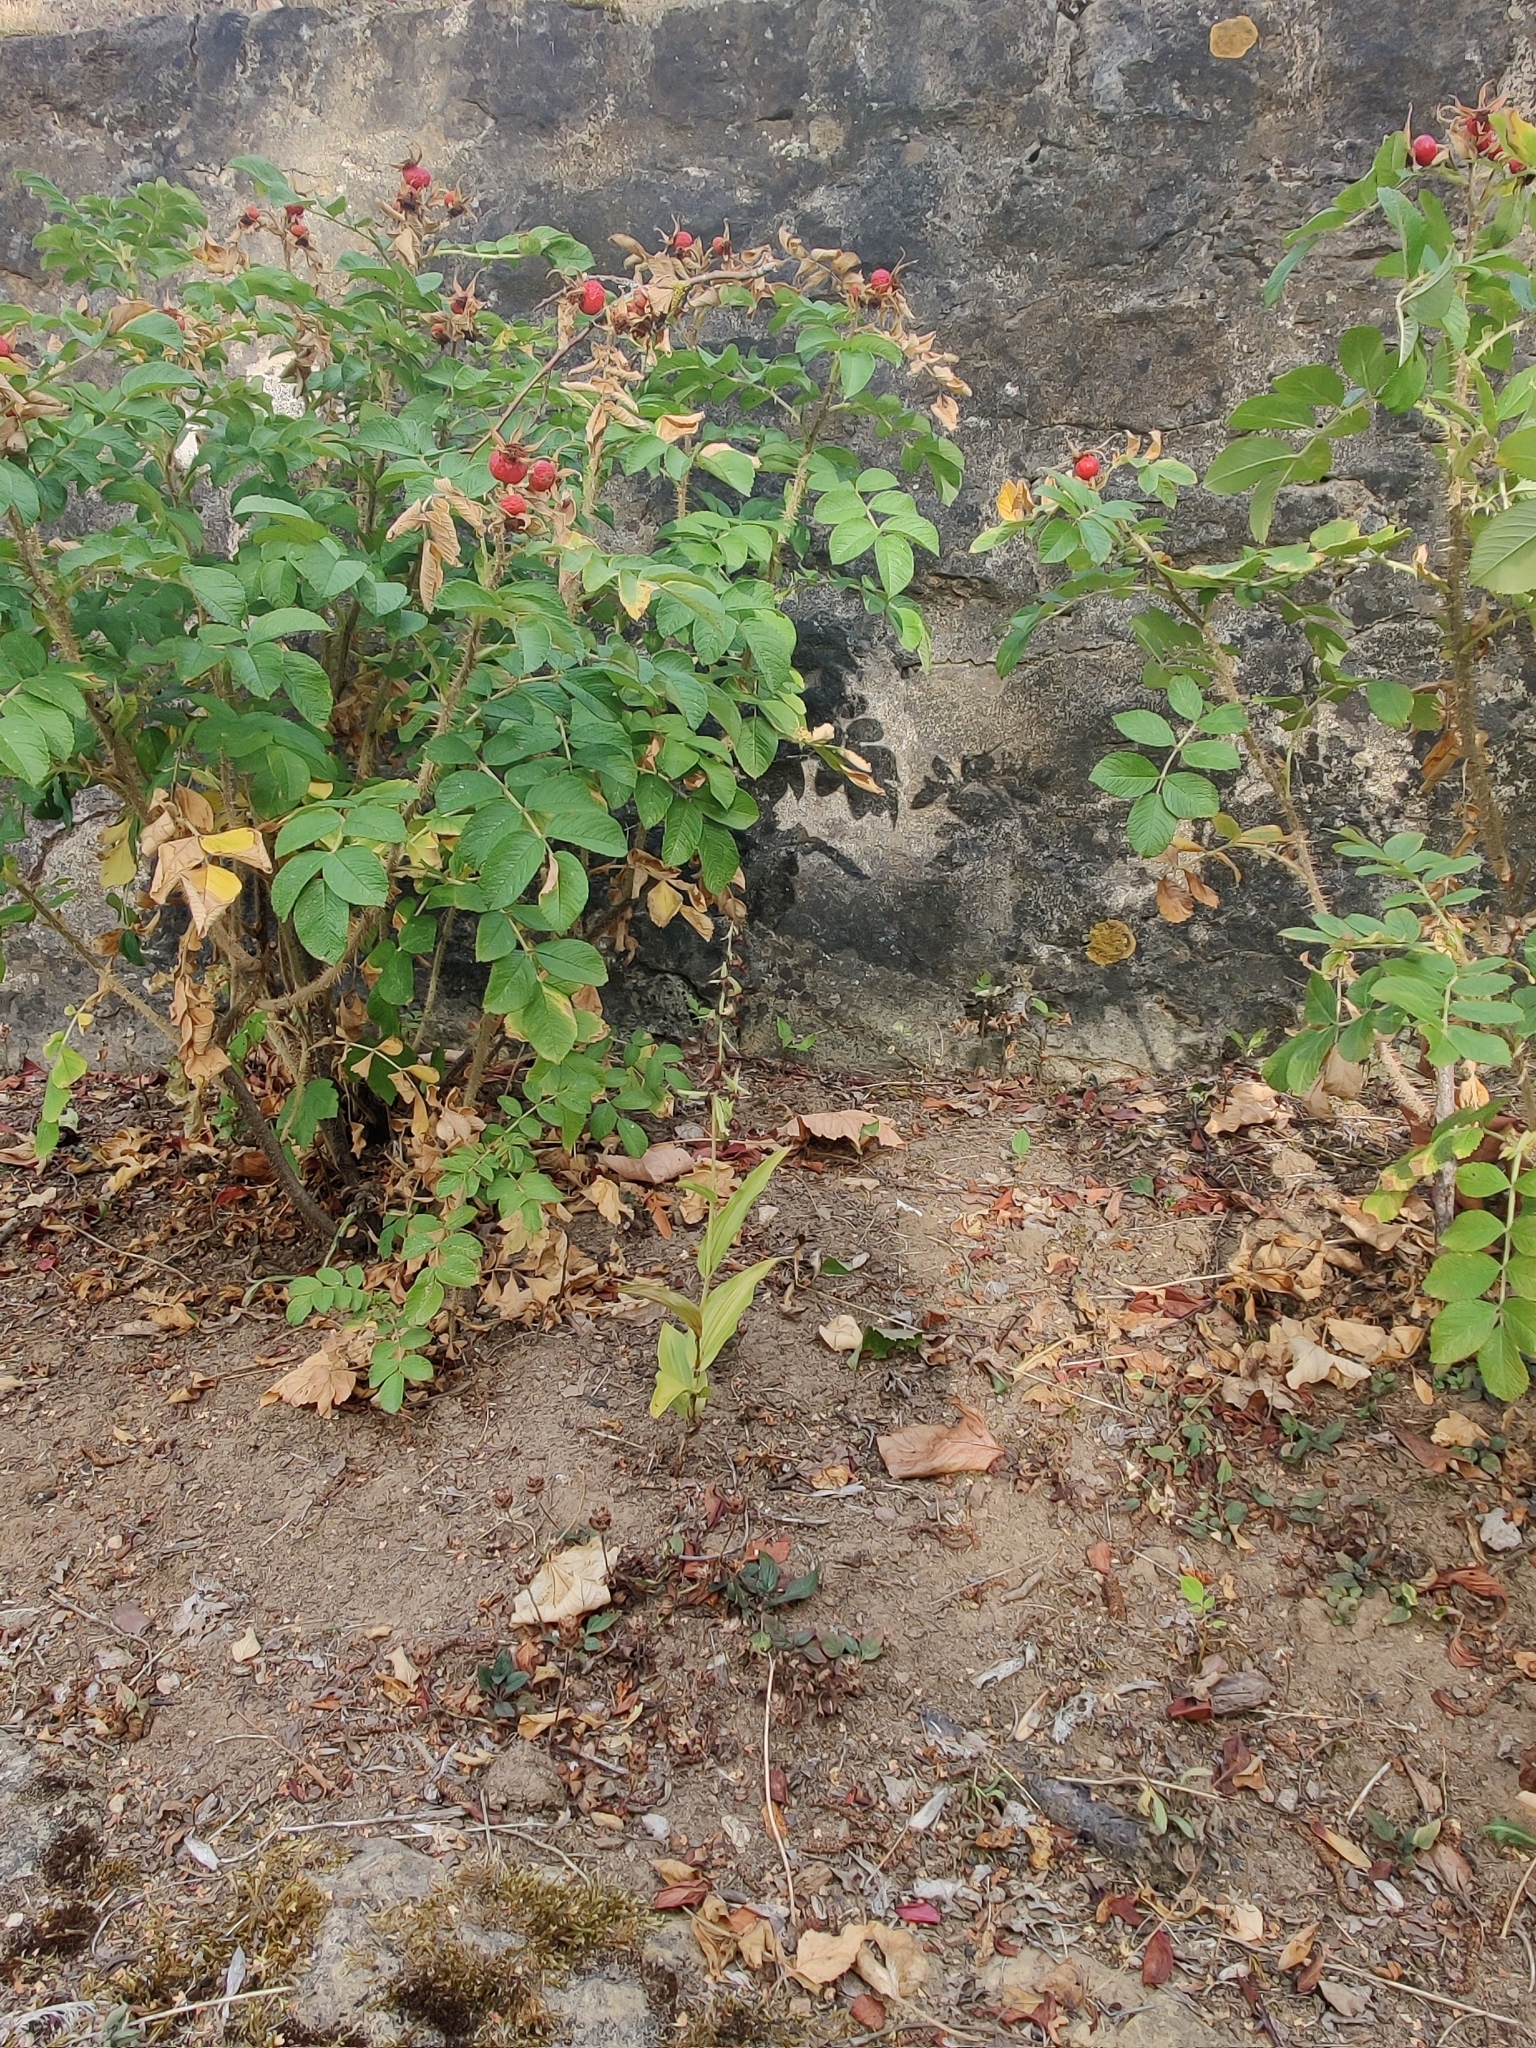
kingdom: Plantae
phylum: Tracheophyta
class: Liliopsida
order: Asparagales
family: Orchidaceae
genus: Epipactis
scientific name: Epipactis atrorubens
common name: Dark-red helleborine
